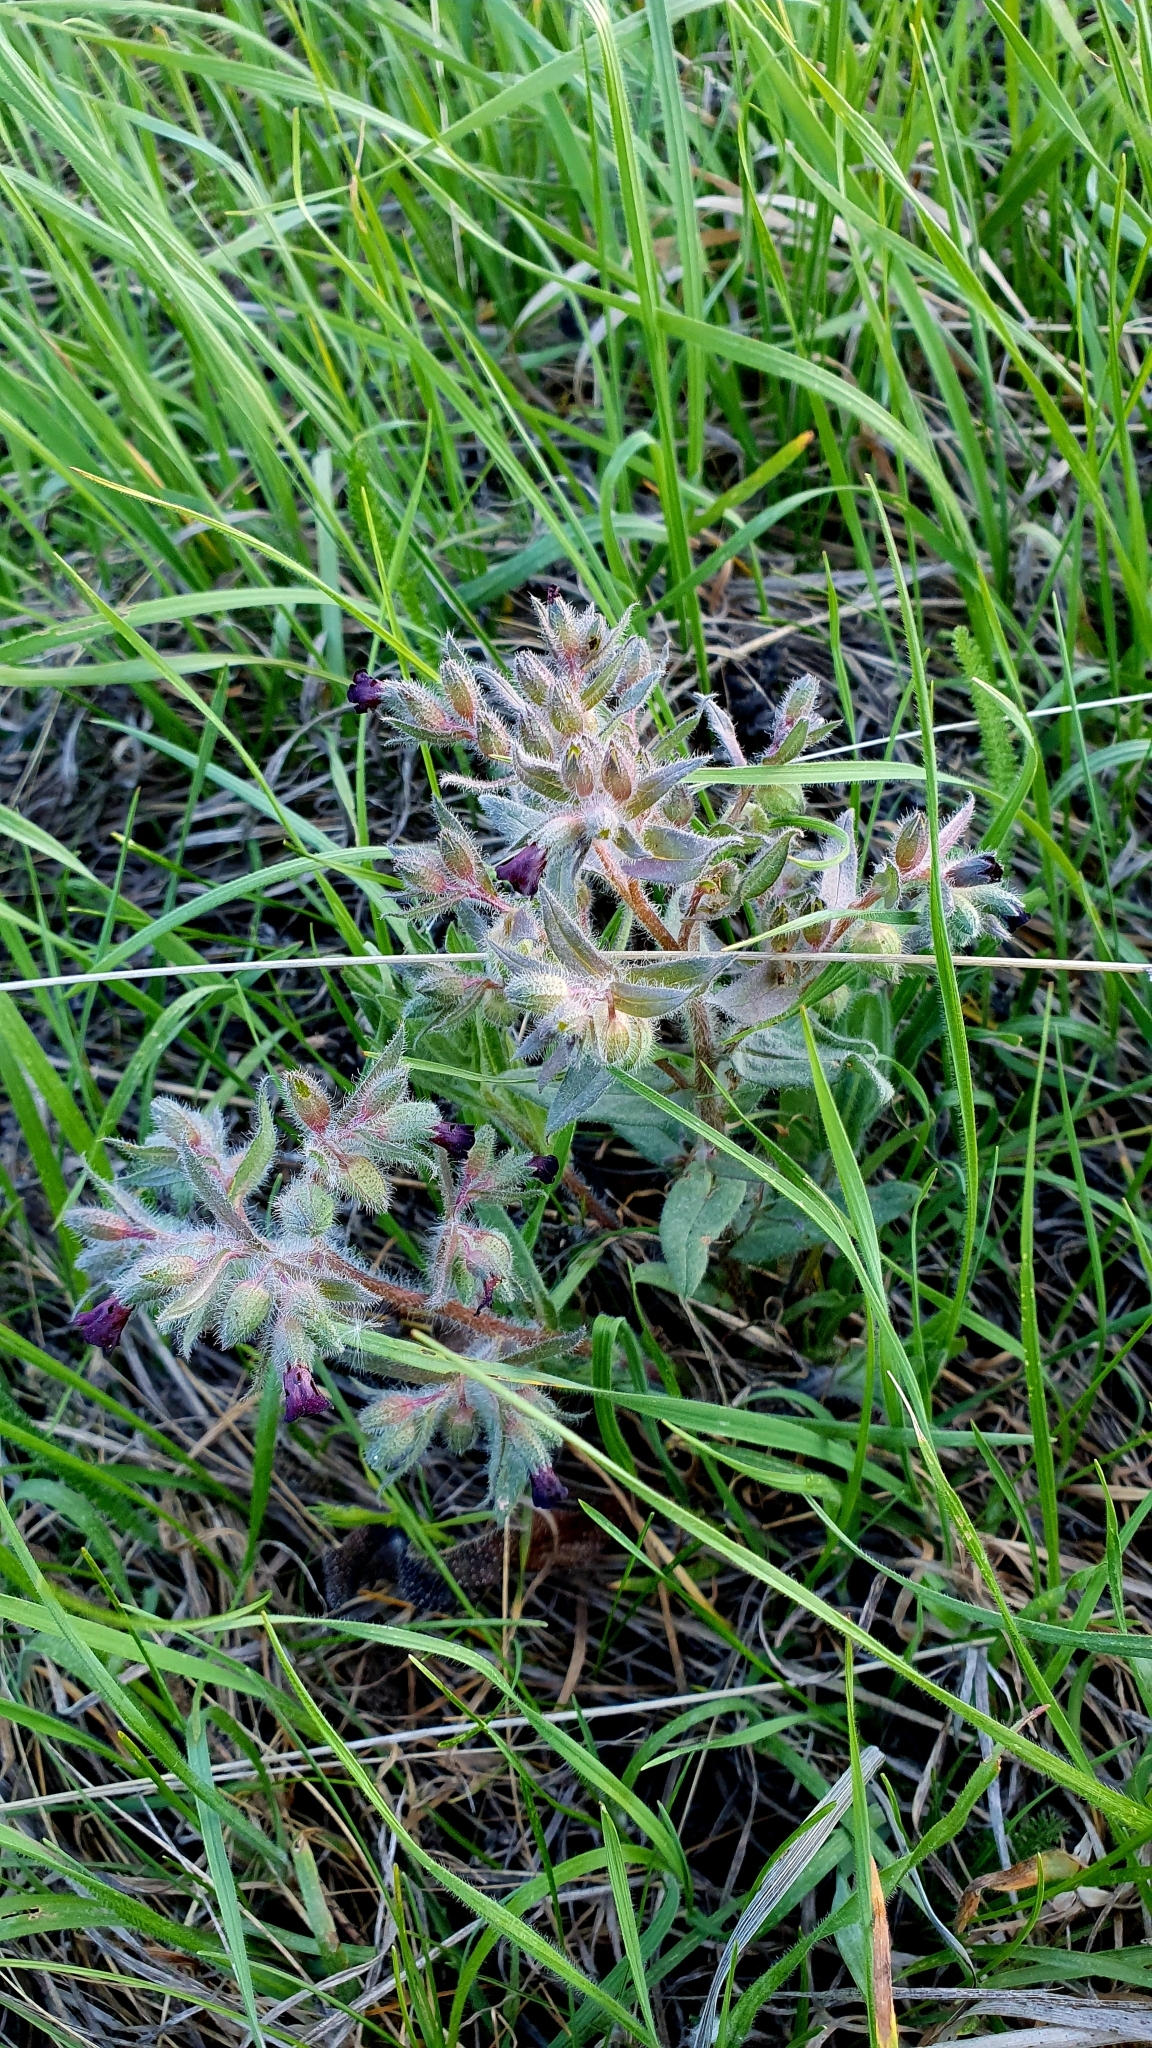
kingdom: Plantae
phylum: Tracheophyta
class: Magnoliopsida
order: Boraginales
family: Boraginaceae
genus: Nonea
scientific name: Nonea pulla
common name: Brown nonea
